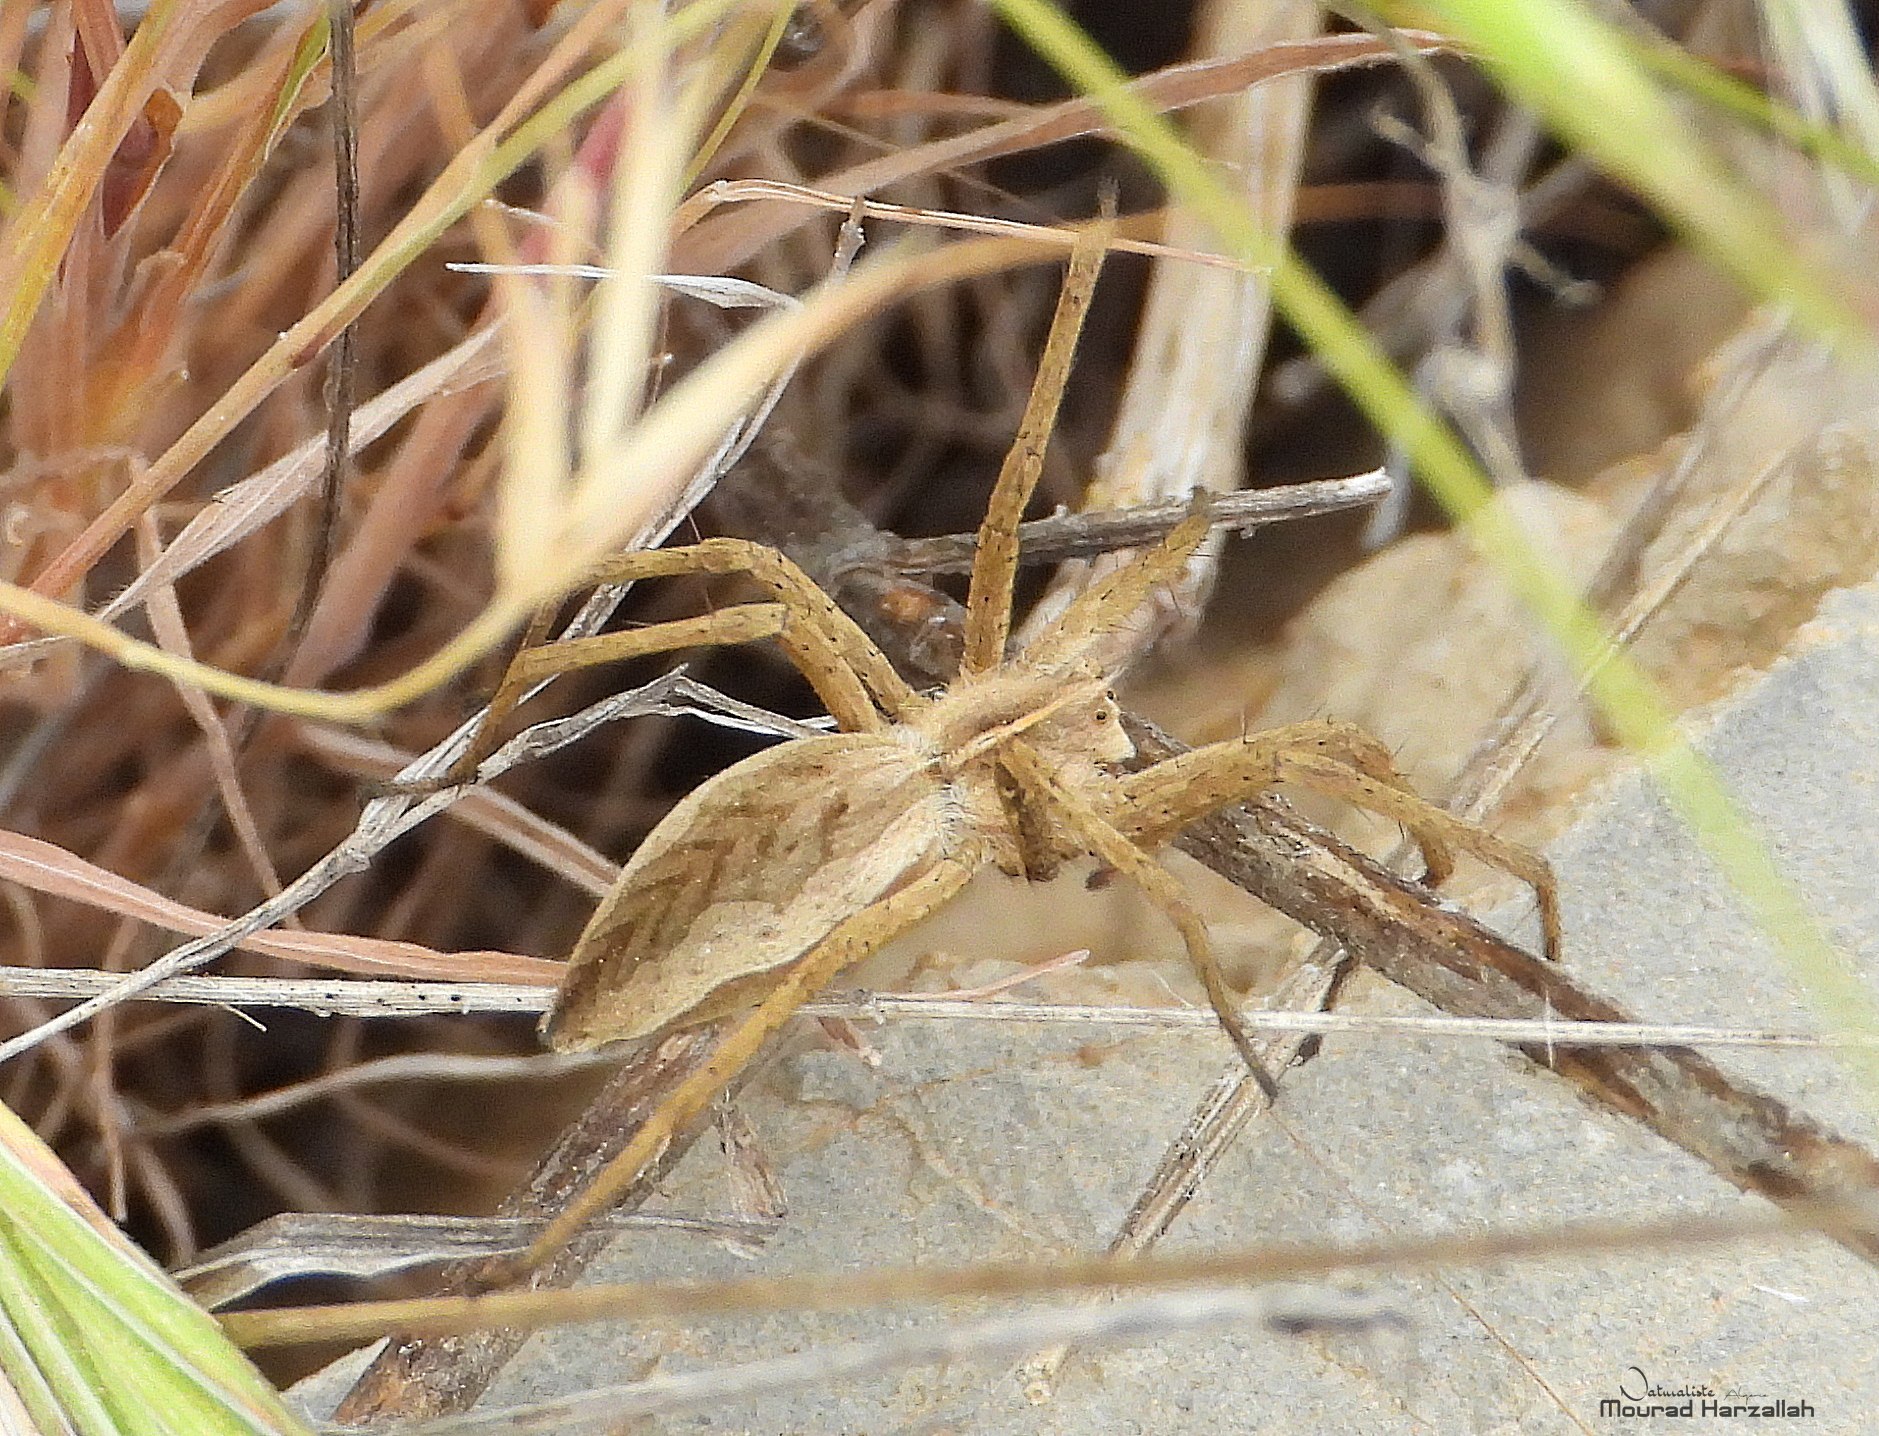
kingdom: Animalia
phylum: Arthropoda
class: Arachnida
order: Araneae
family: Pisauridae
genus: Pisaura
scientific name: Pisaura mirabilis
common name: Tent spider
